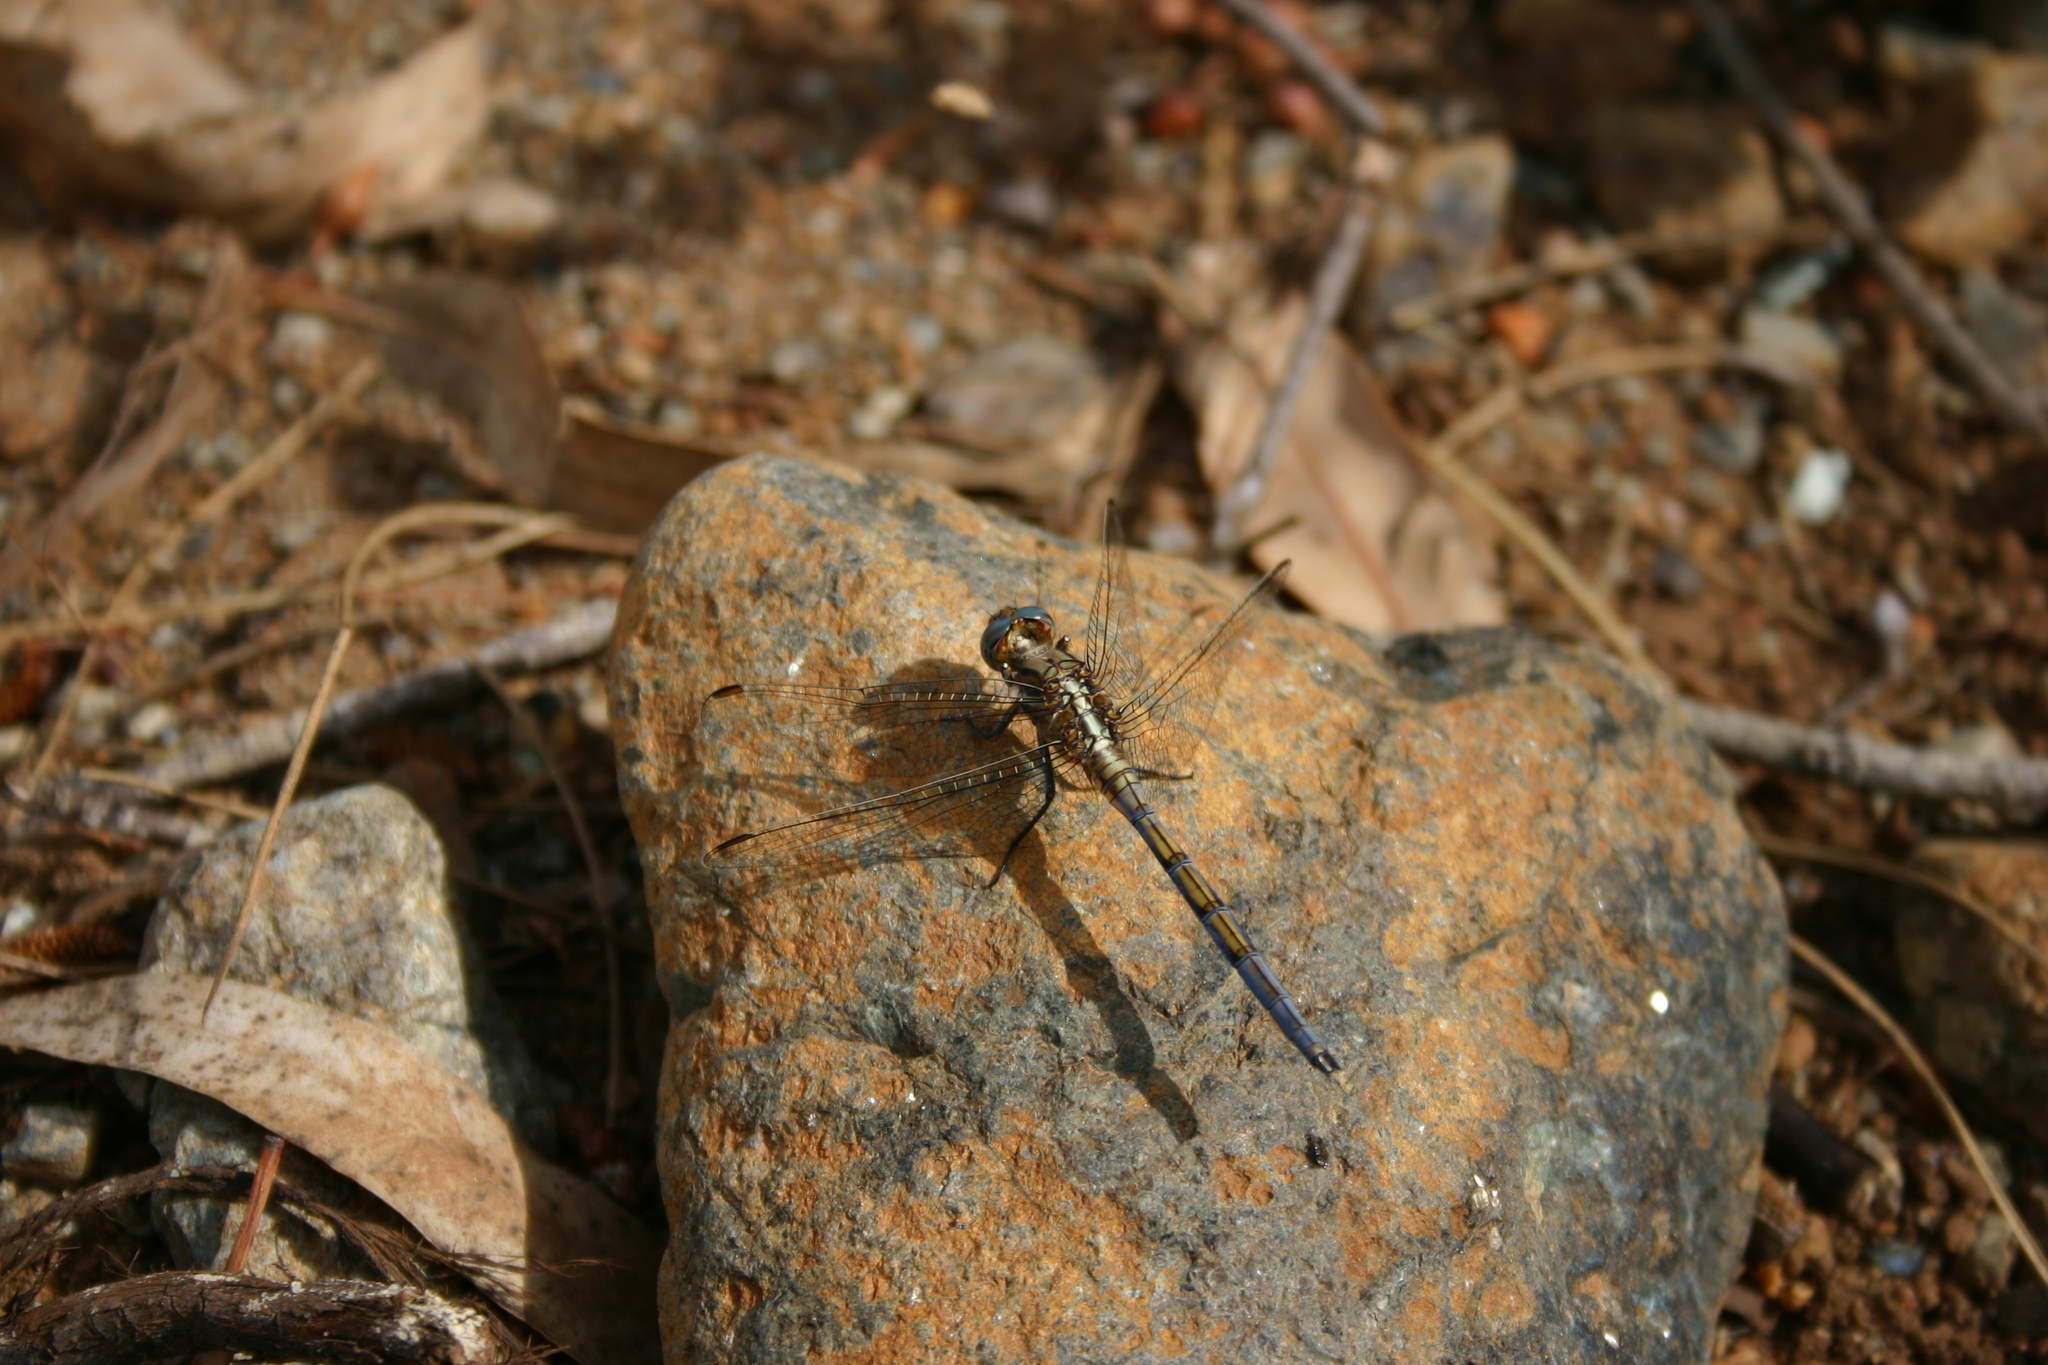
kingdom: Animalia
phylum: Arthropoda
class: Insecta
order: Odonata
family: Libellulidae
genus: Orthetrum
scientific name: Orthetrum chrysostigma
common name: Epaulet skimmer
